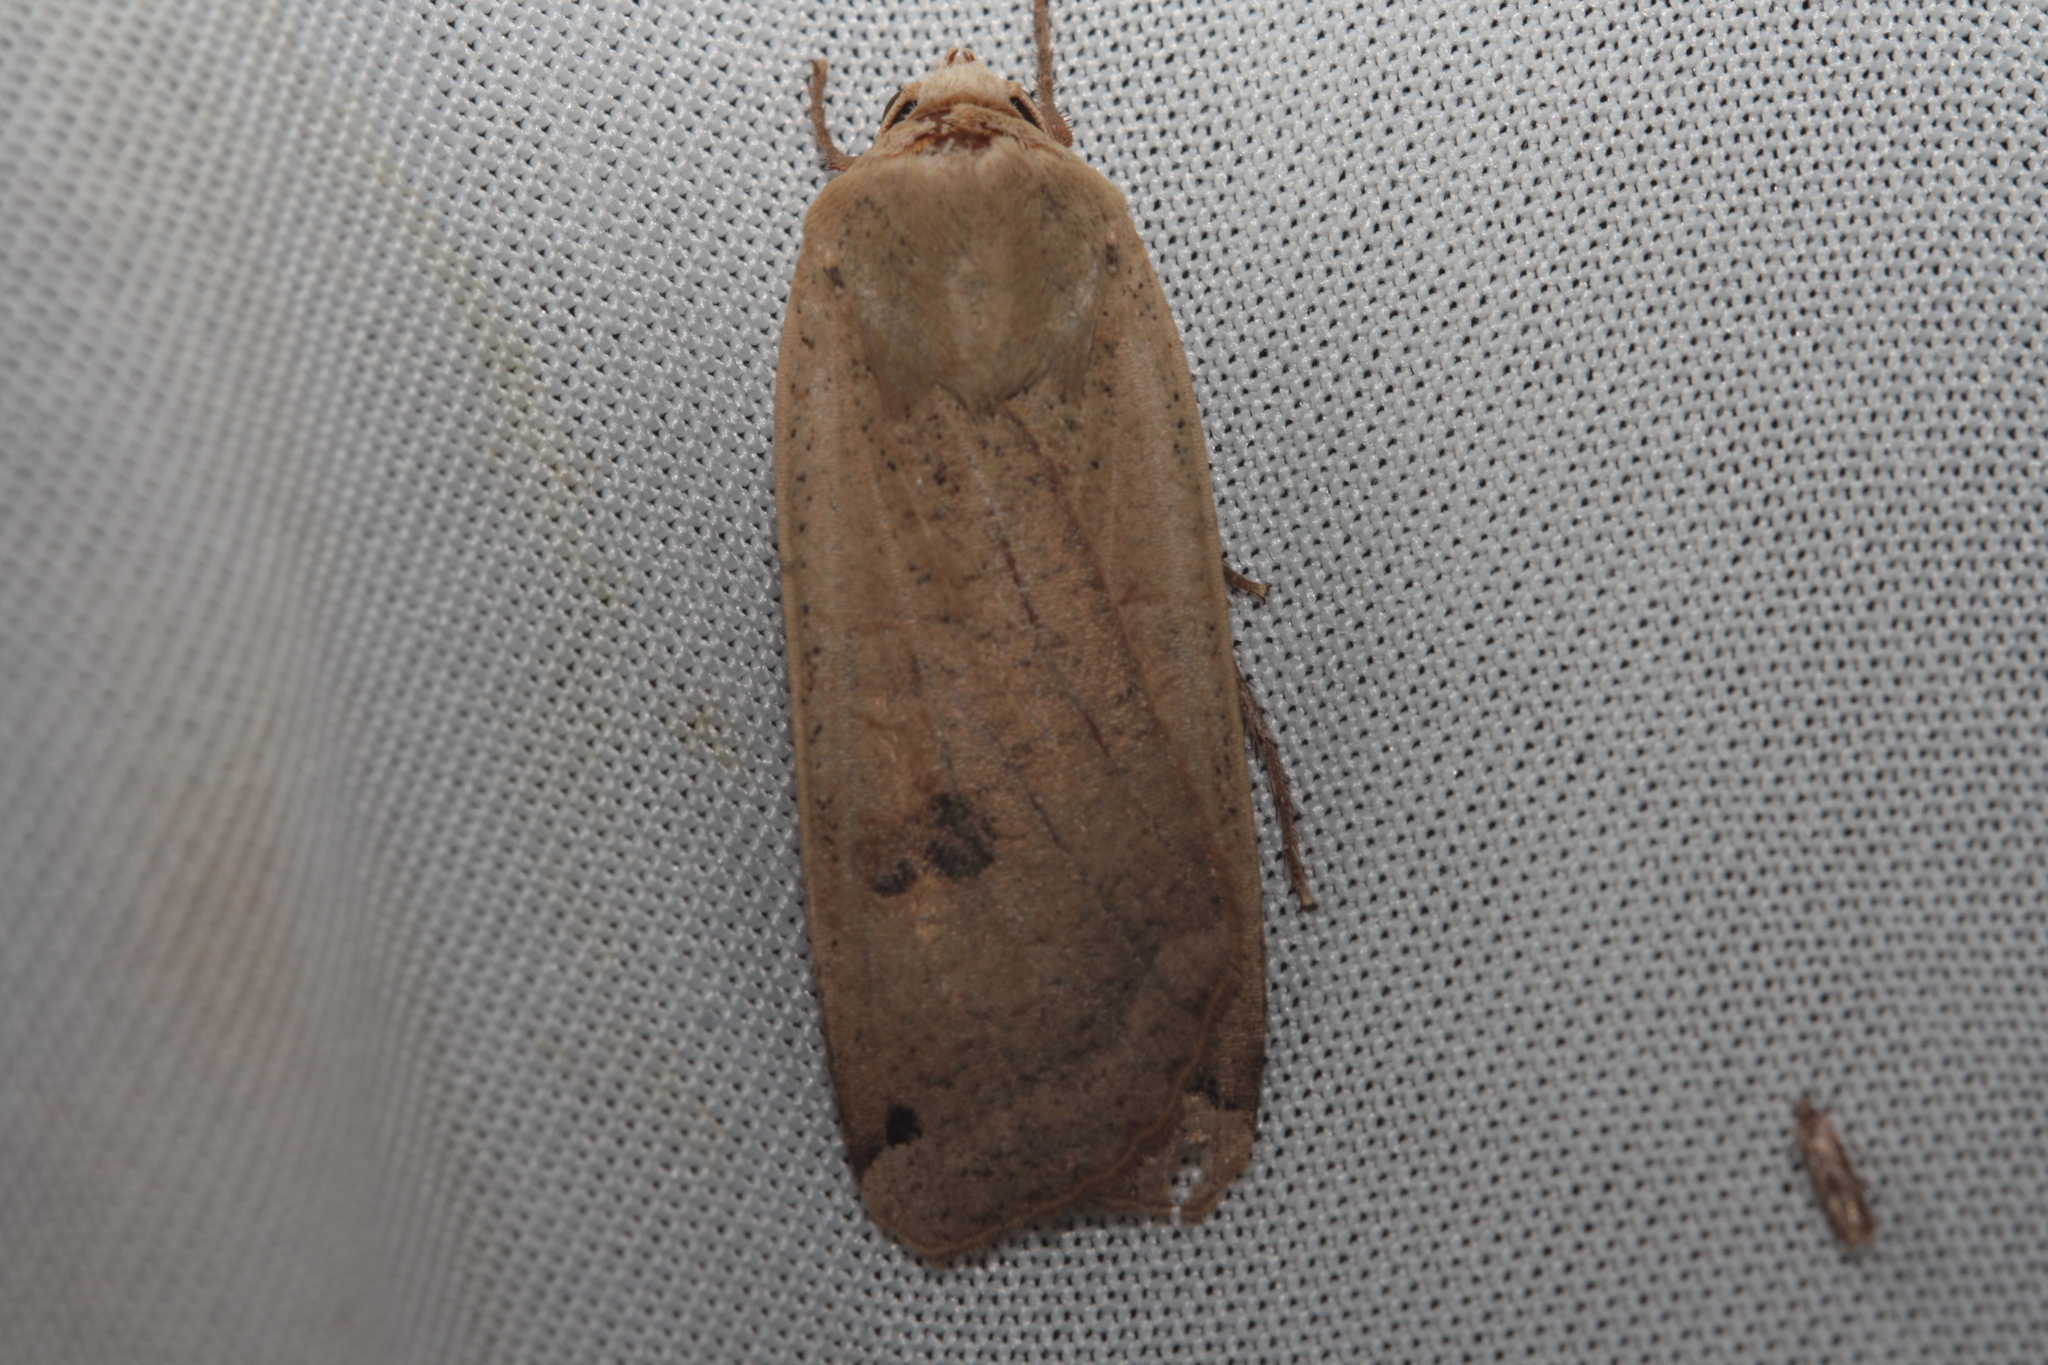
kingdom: Animalia
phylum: Arthropoda
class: Insecta
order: Lepidoptera
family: Noctuidae
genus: Noctua
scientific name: Noctua pronuba
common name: Large yellow underwing
